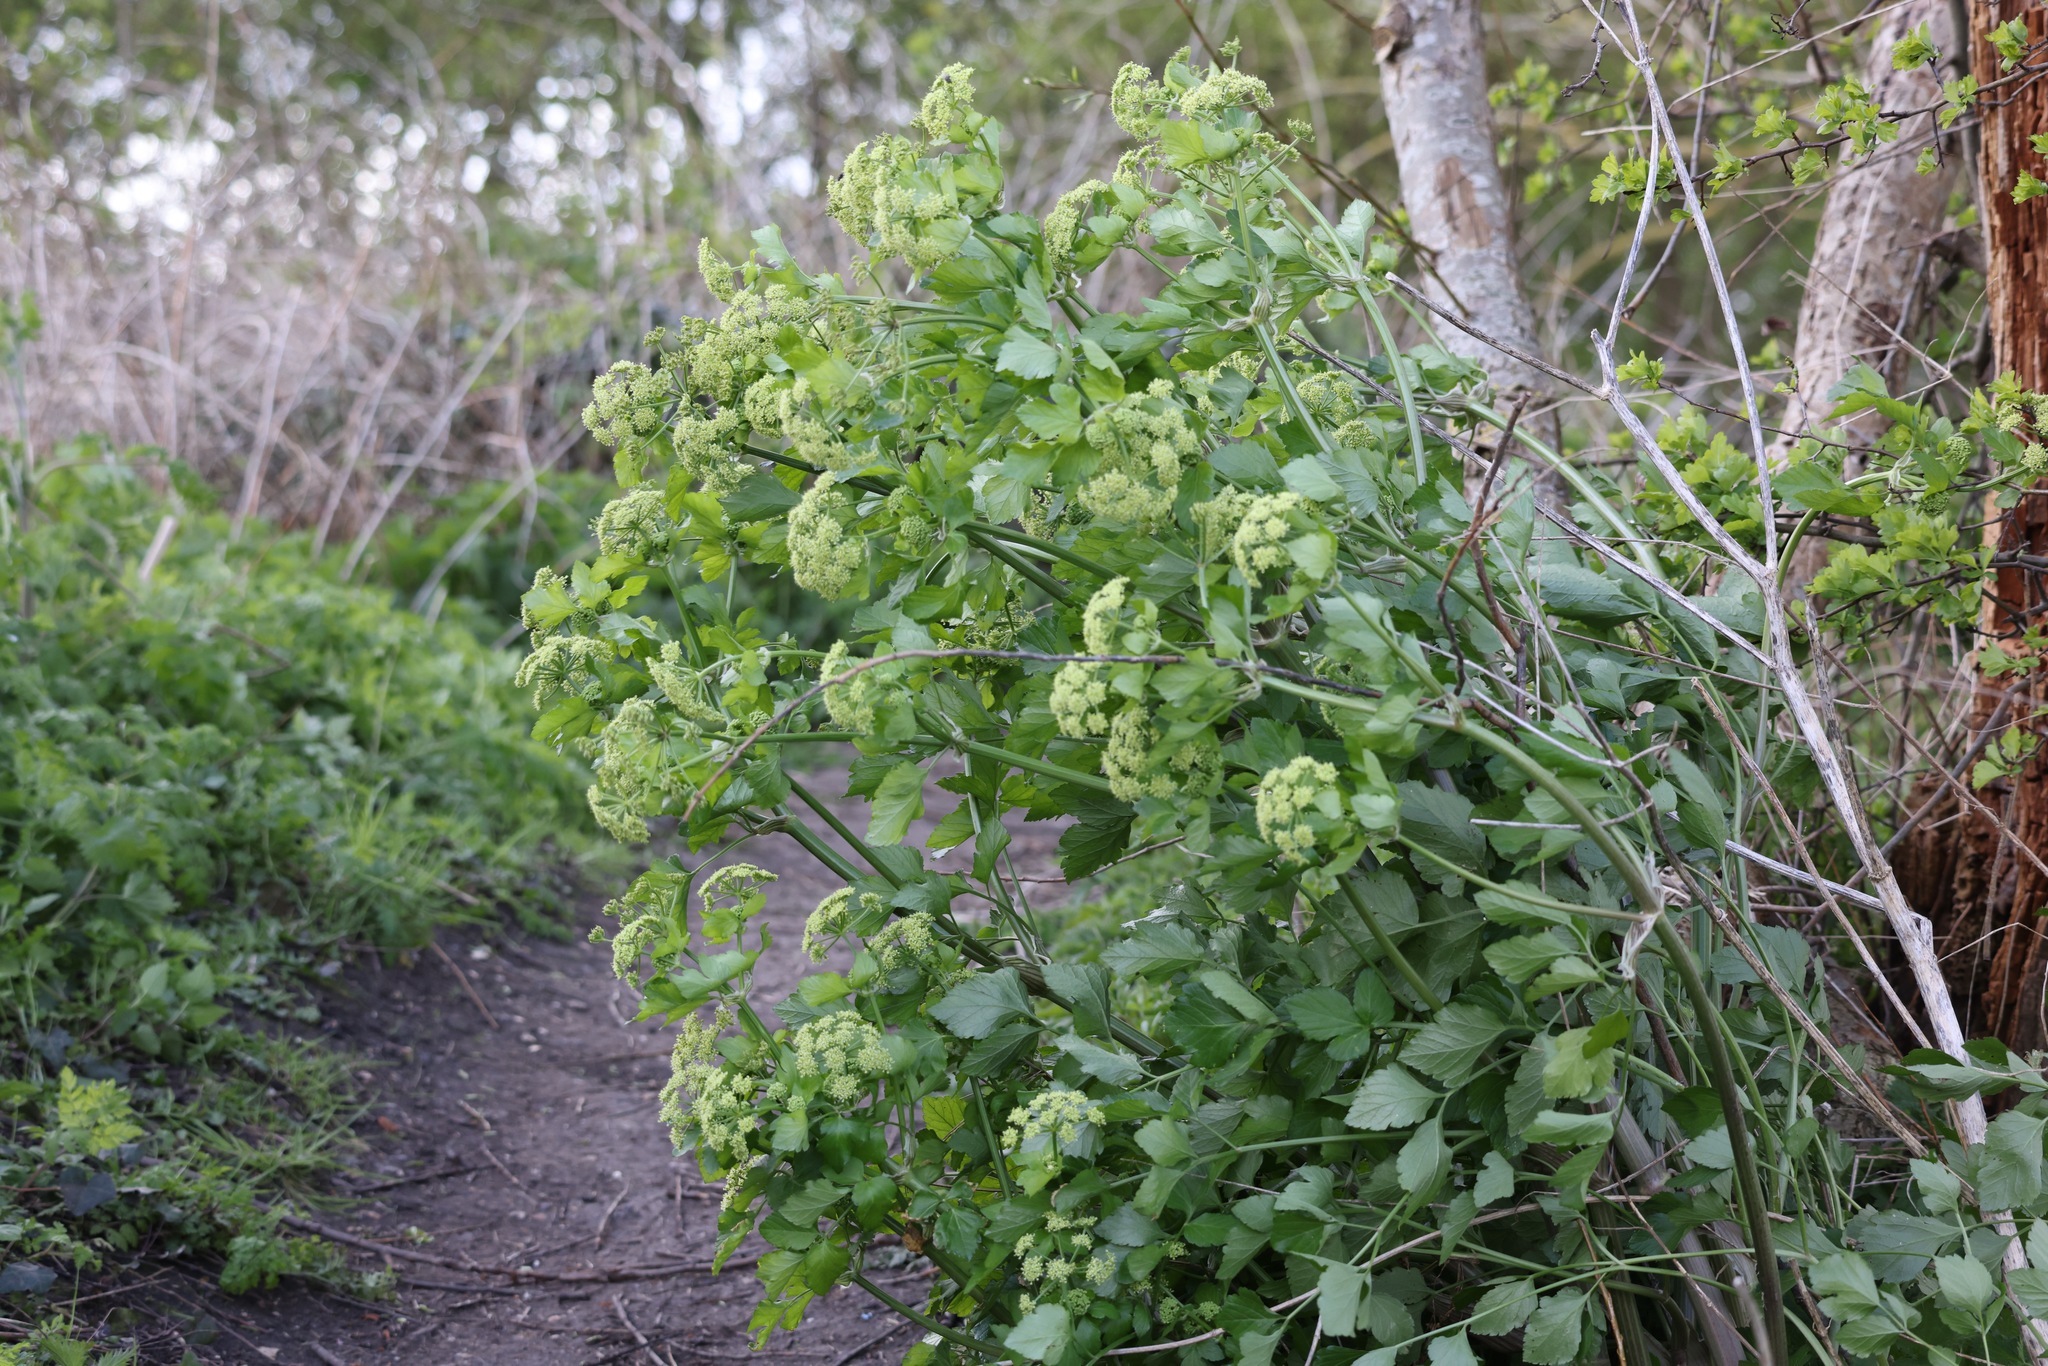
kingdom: Plantae
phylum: Tracheophyta
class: Magnoliopsida
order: Apiales
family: Apiaceae
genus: Smyrnium
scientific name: Smyrnium olusatrum
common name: Alexanders
